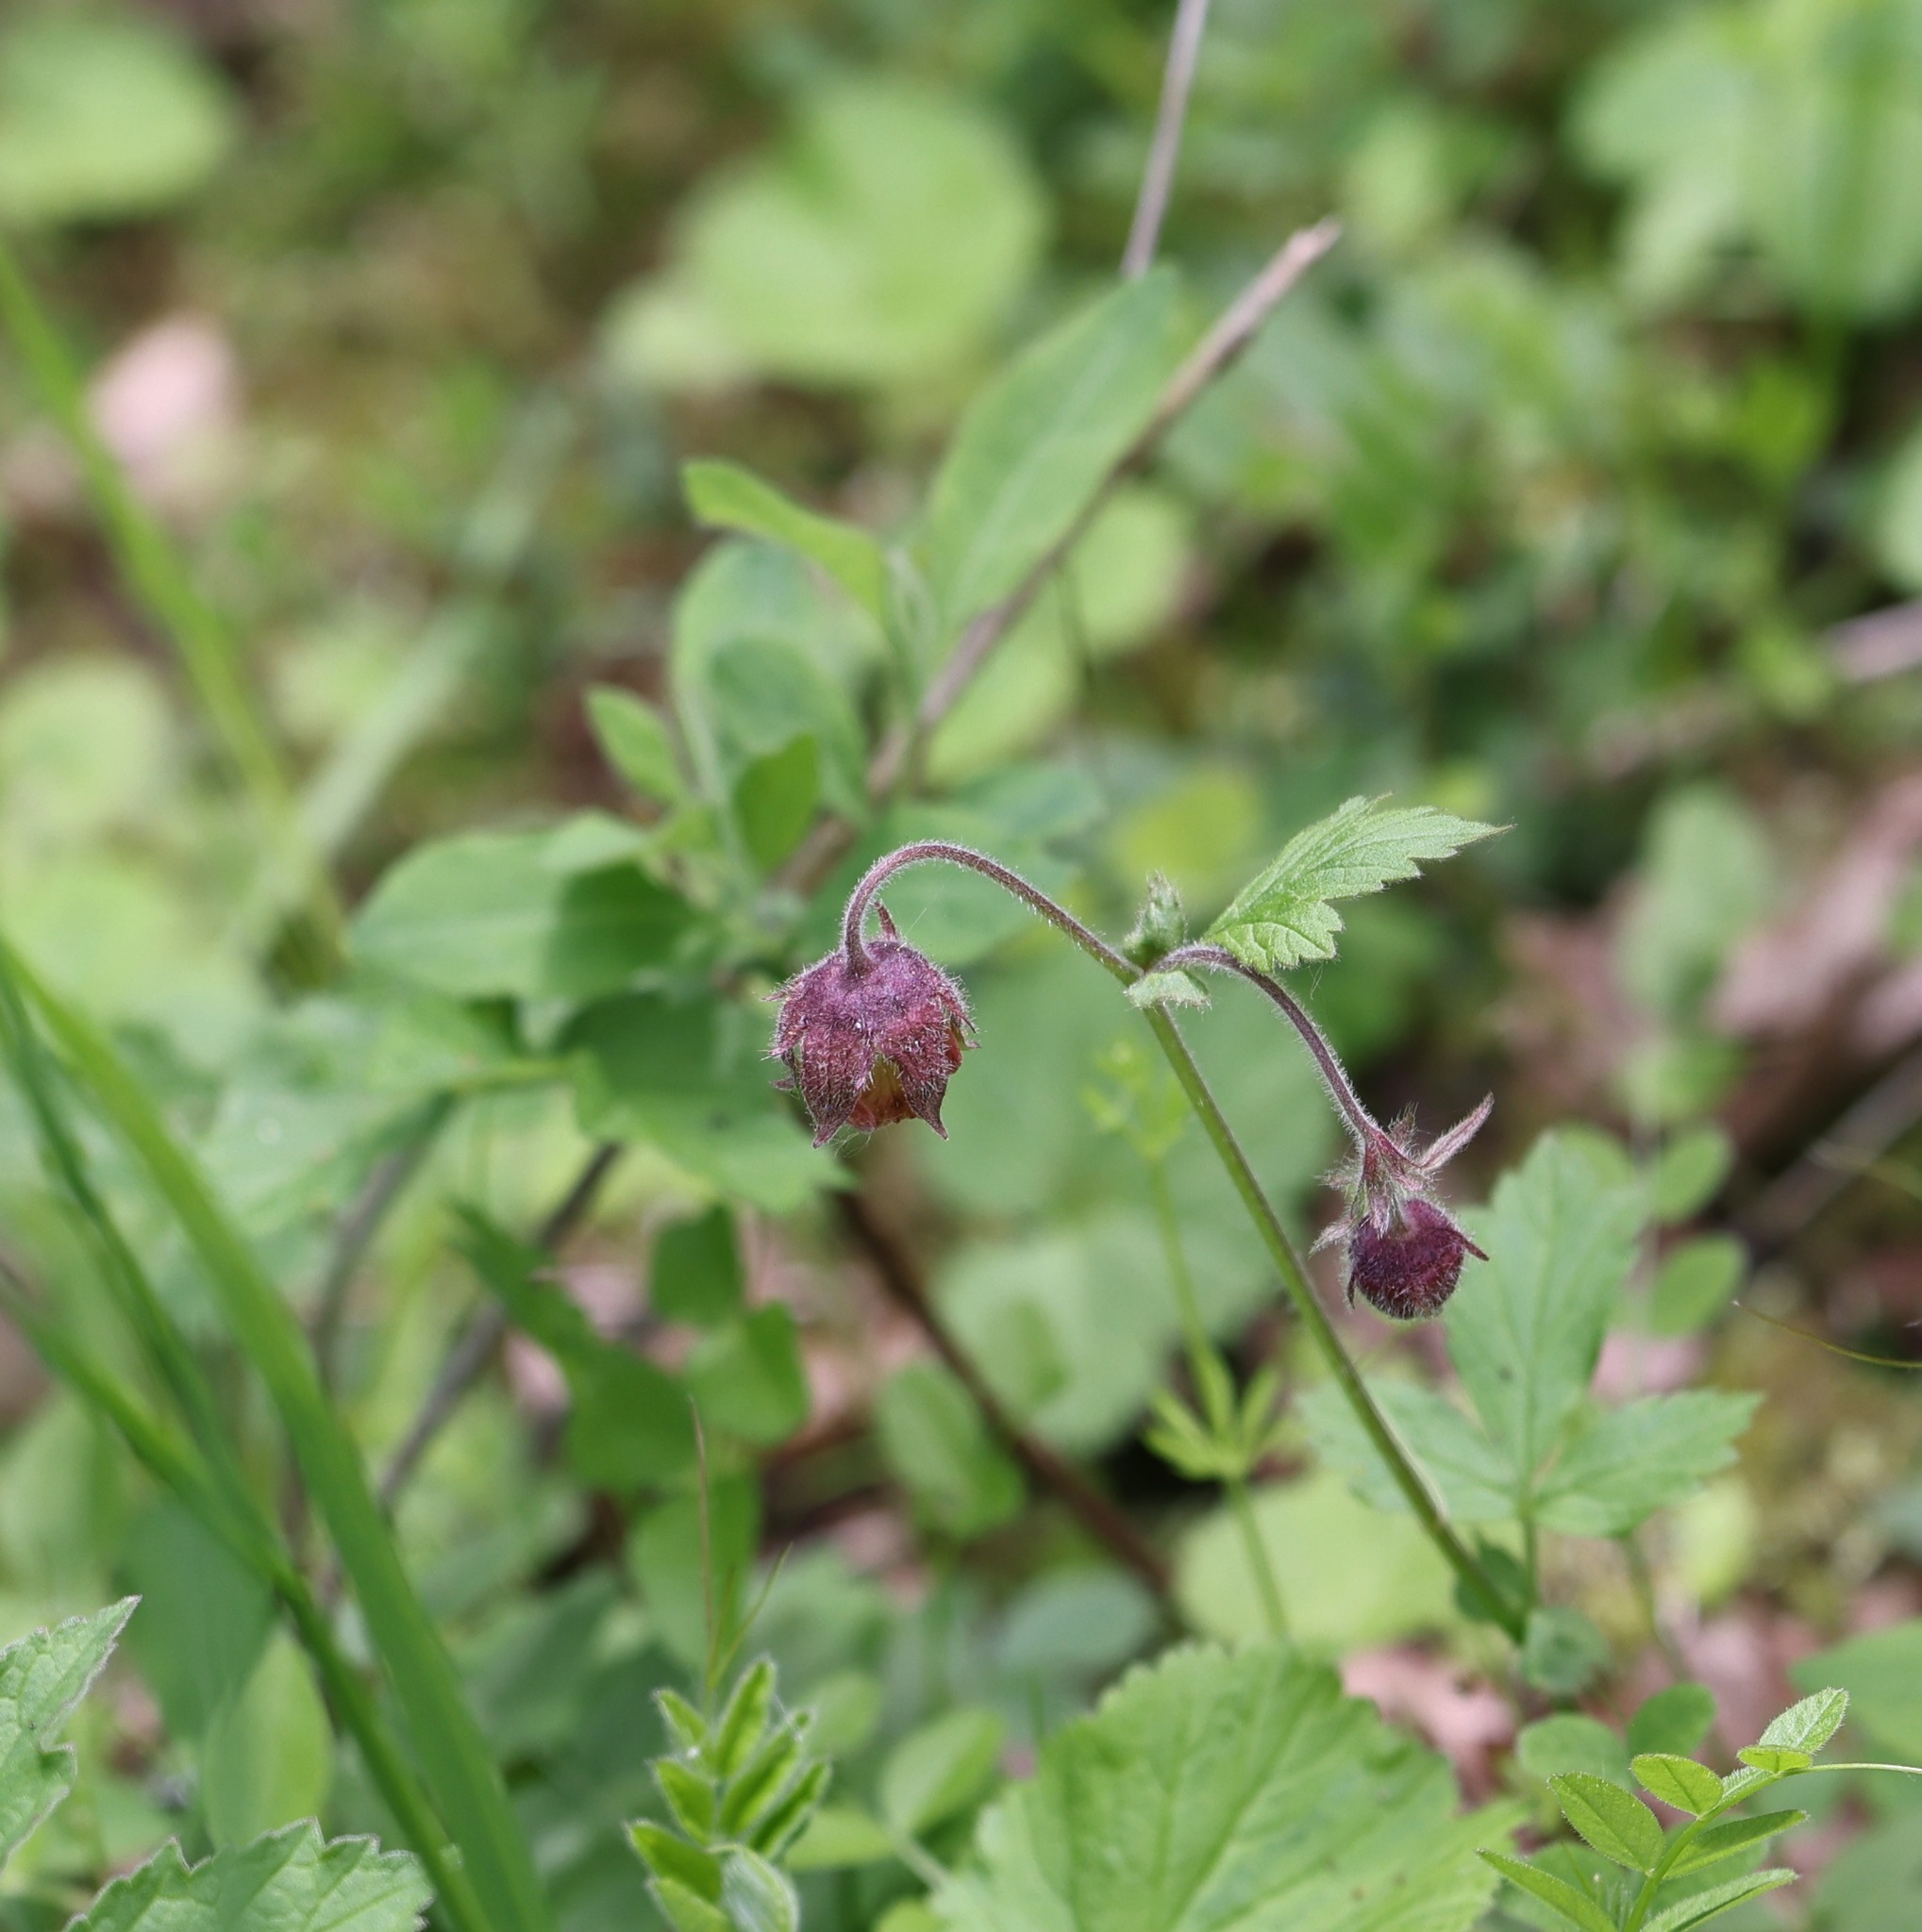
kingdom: Plantae
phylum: Tracheophyta
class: Magnoliopsida
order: Rosales
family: Rosaceae
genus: Geum
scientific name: Geum rivale
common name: Water avens
